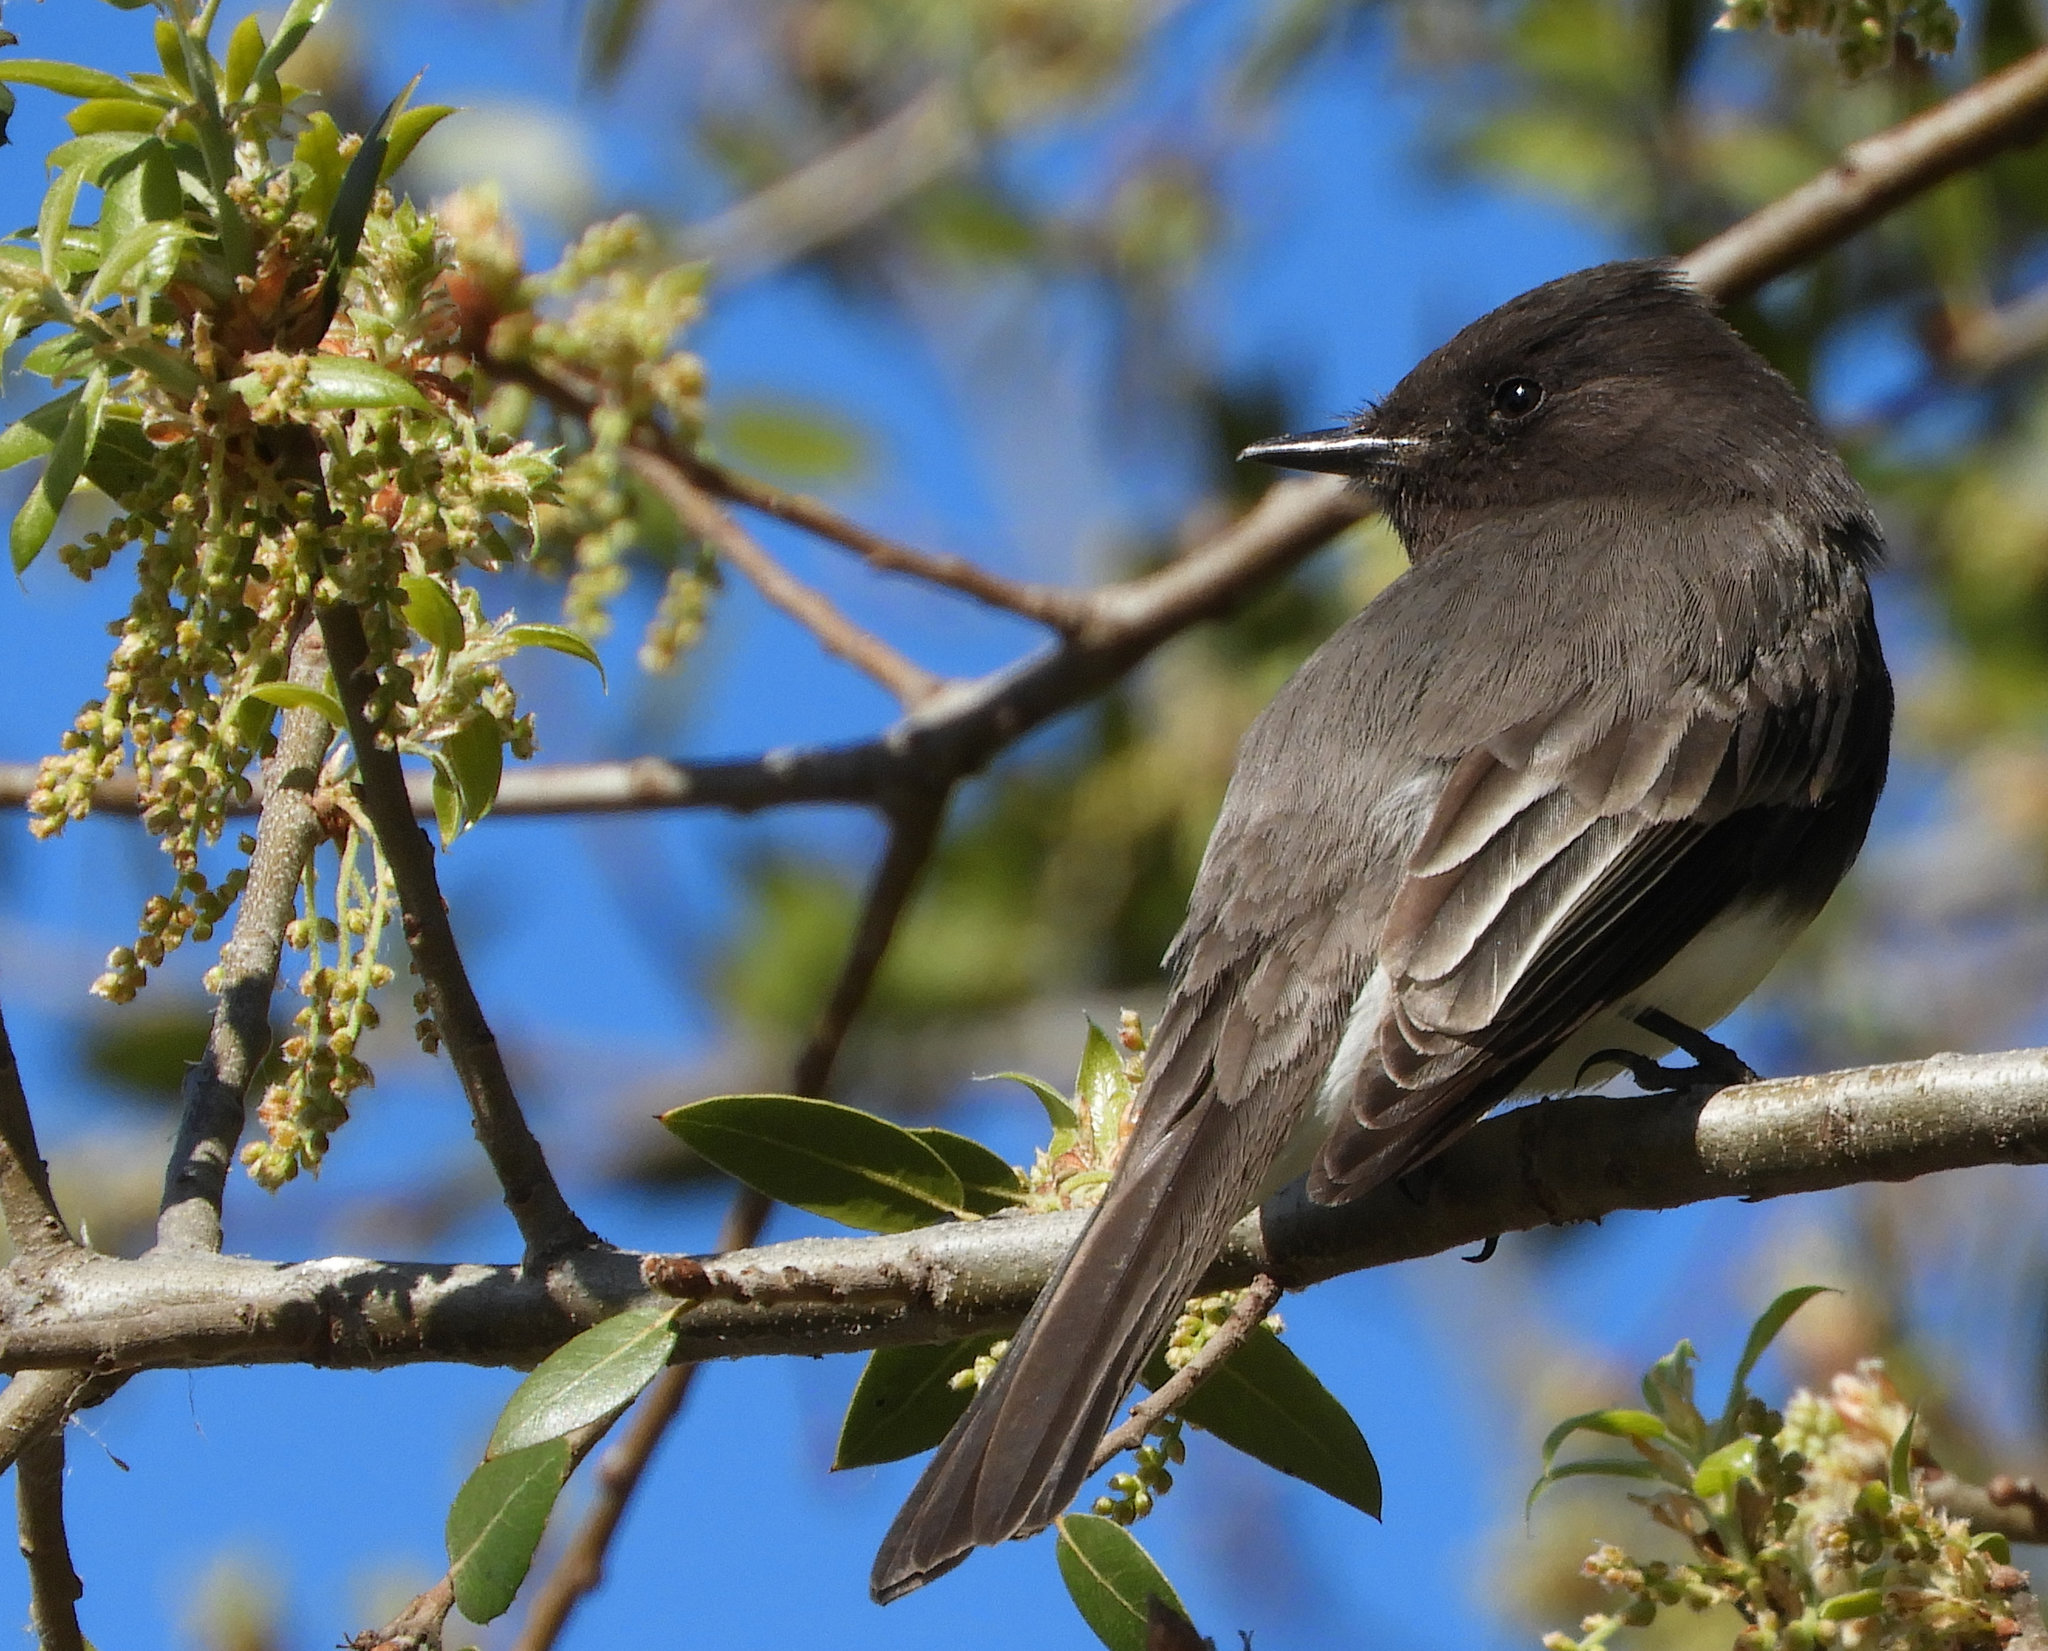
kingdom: Animalia
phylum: Chordata
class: Aves
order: Passeriformes
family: Tyrannidae
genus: Sayornis
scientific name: Sayornis nigricans
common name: Black phoebe
